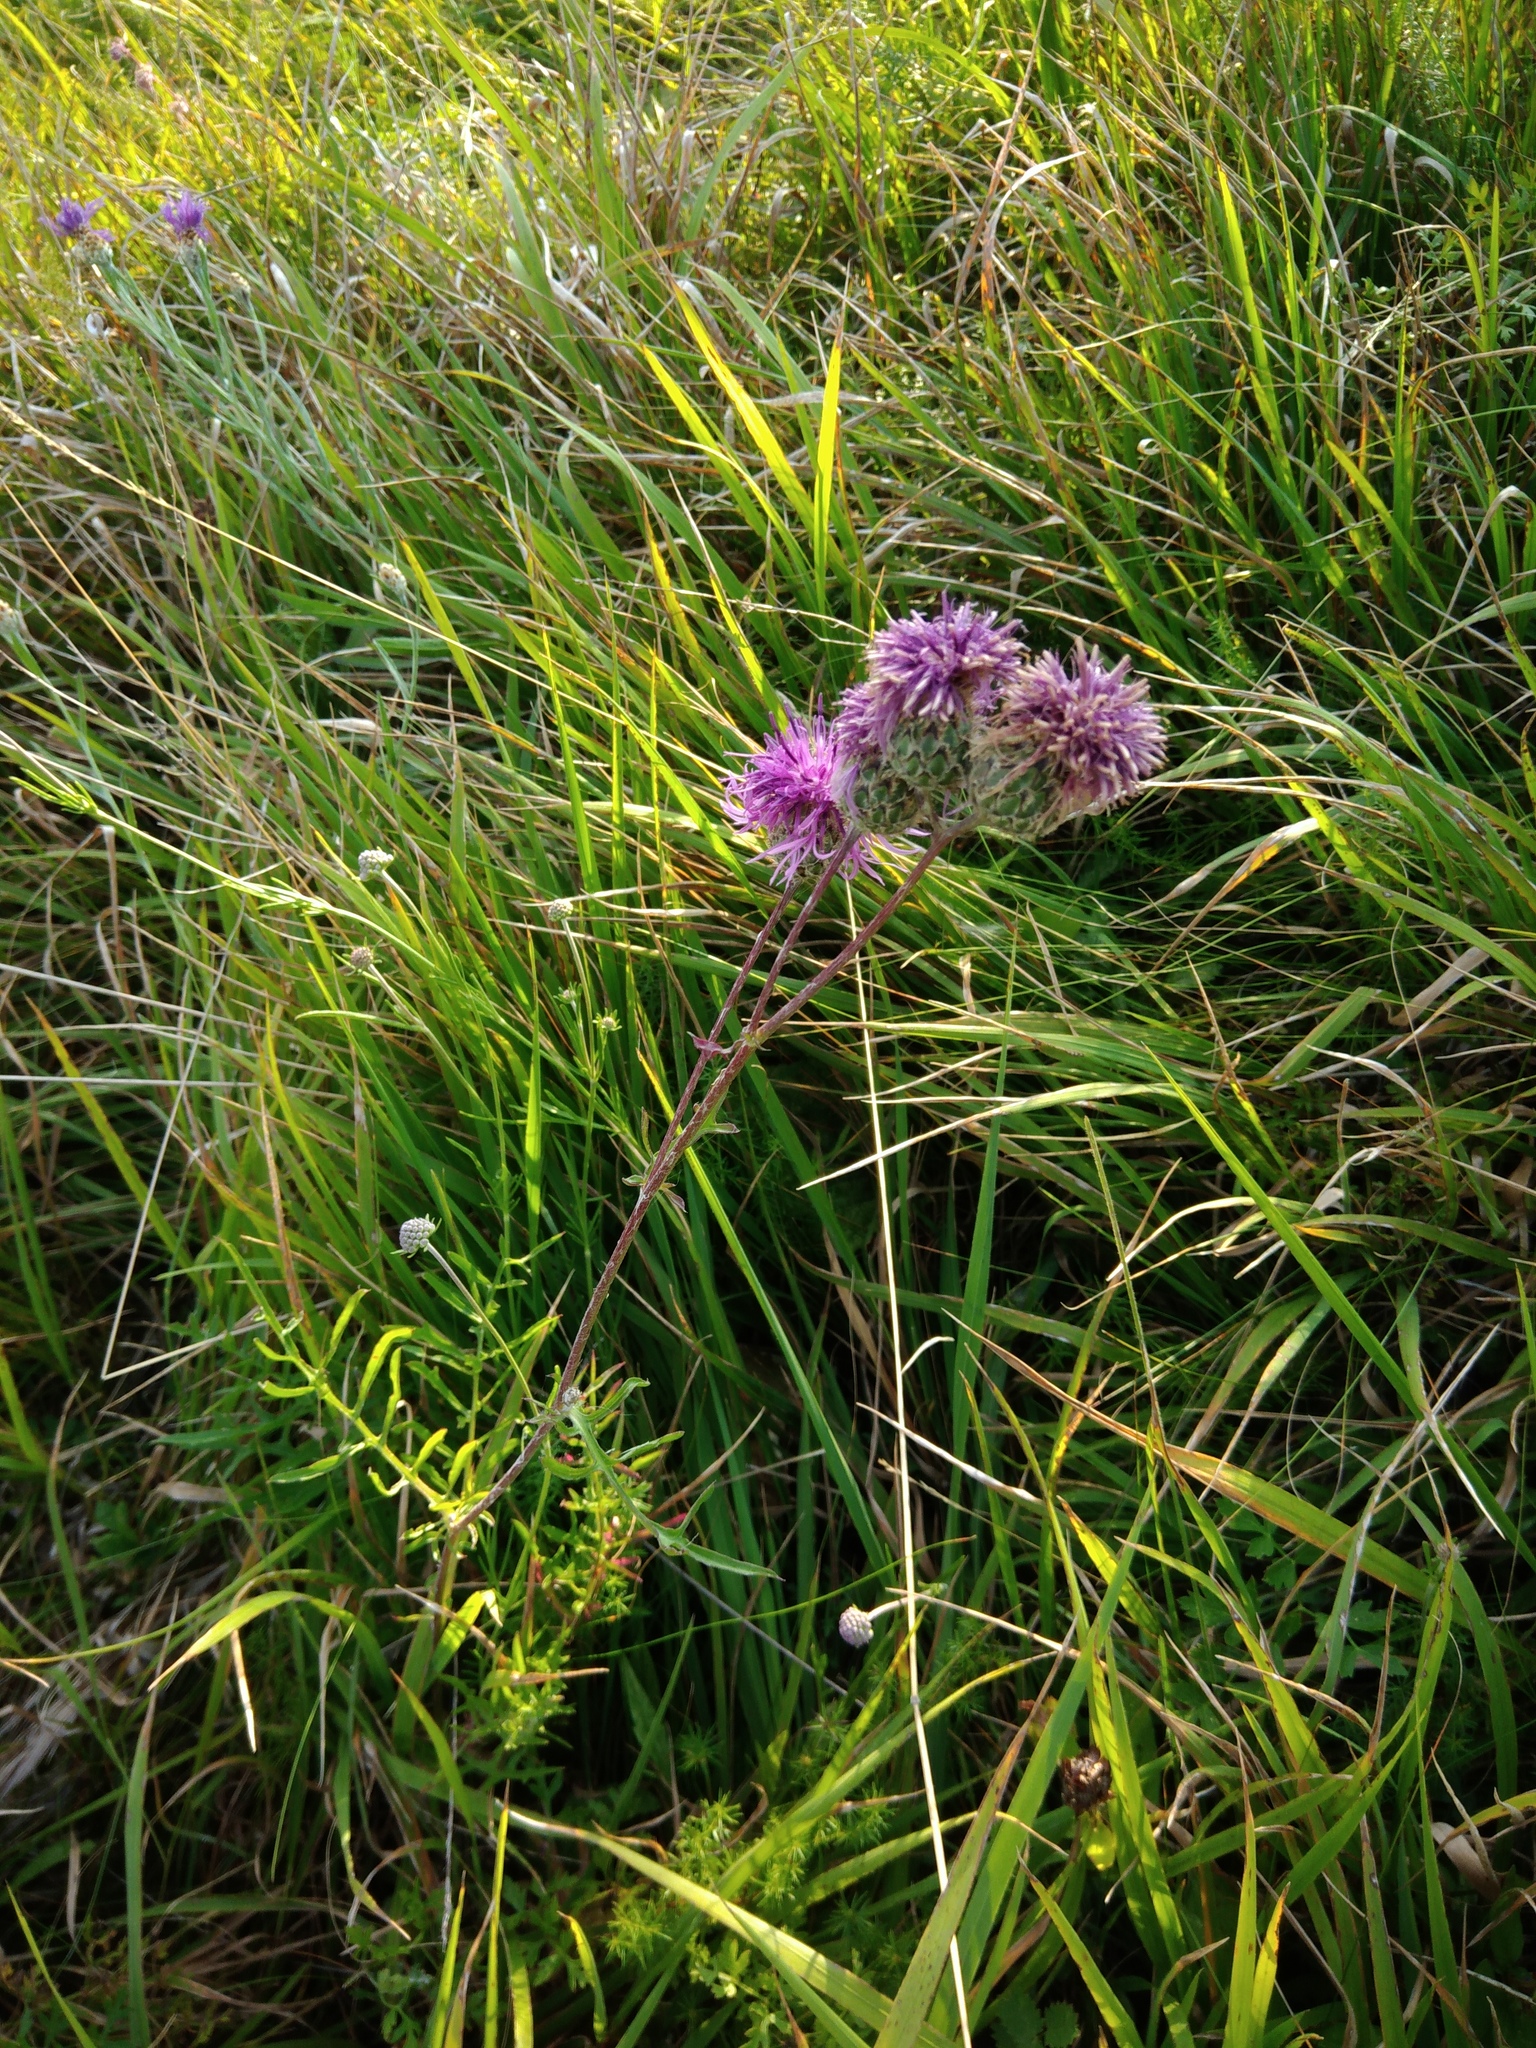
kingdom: Plantae
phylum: Tracheophyta
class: Magnoliopsida
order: Asterales
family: Asteraceae
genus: Centaurea
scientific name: Centaurea scabiosa
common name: Greater knapweed
